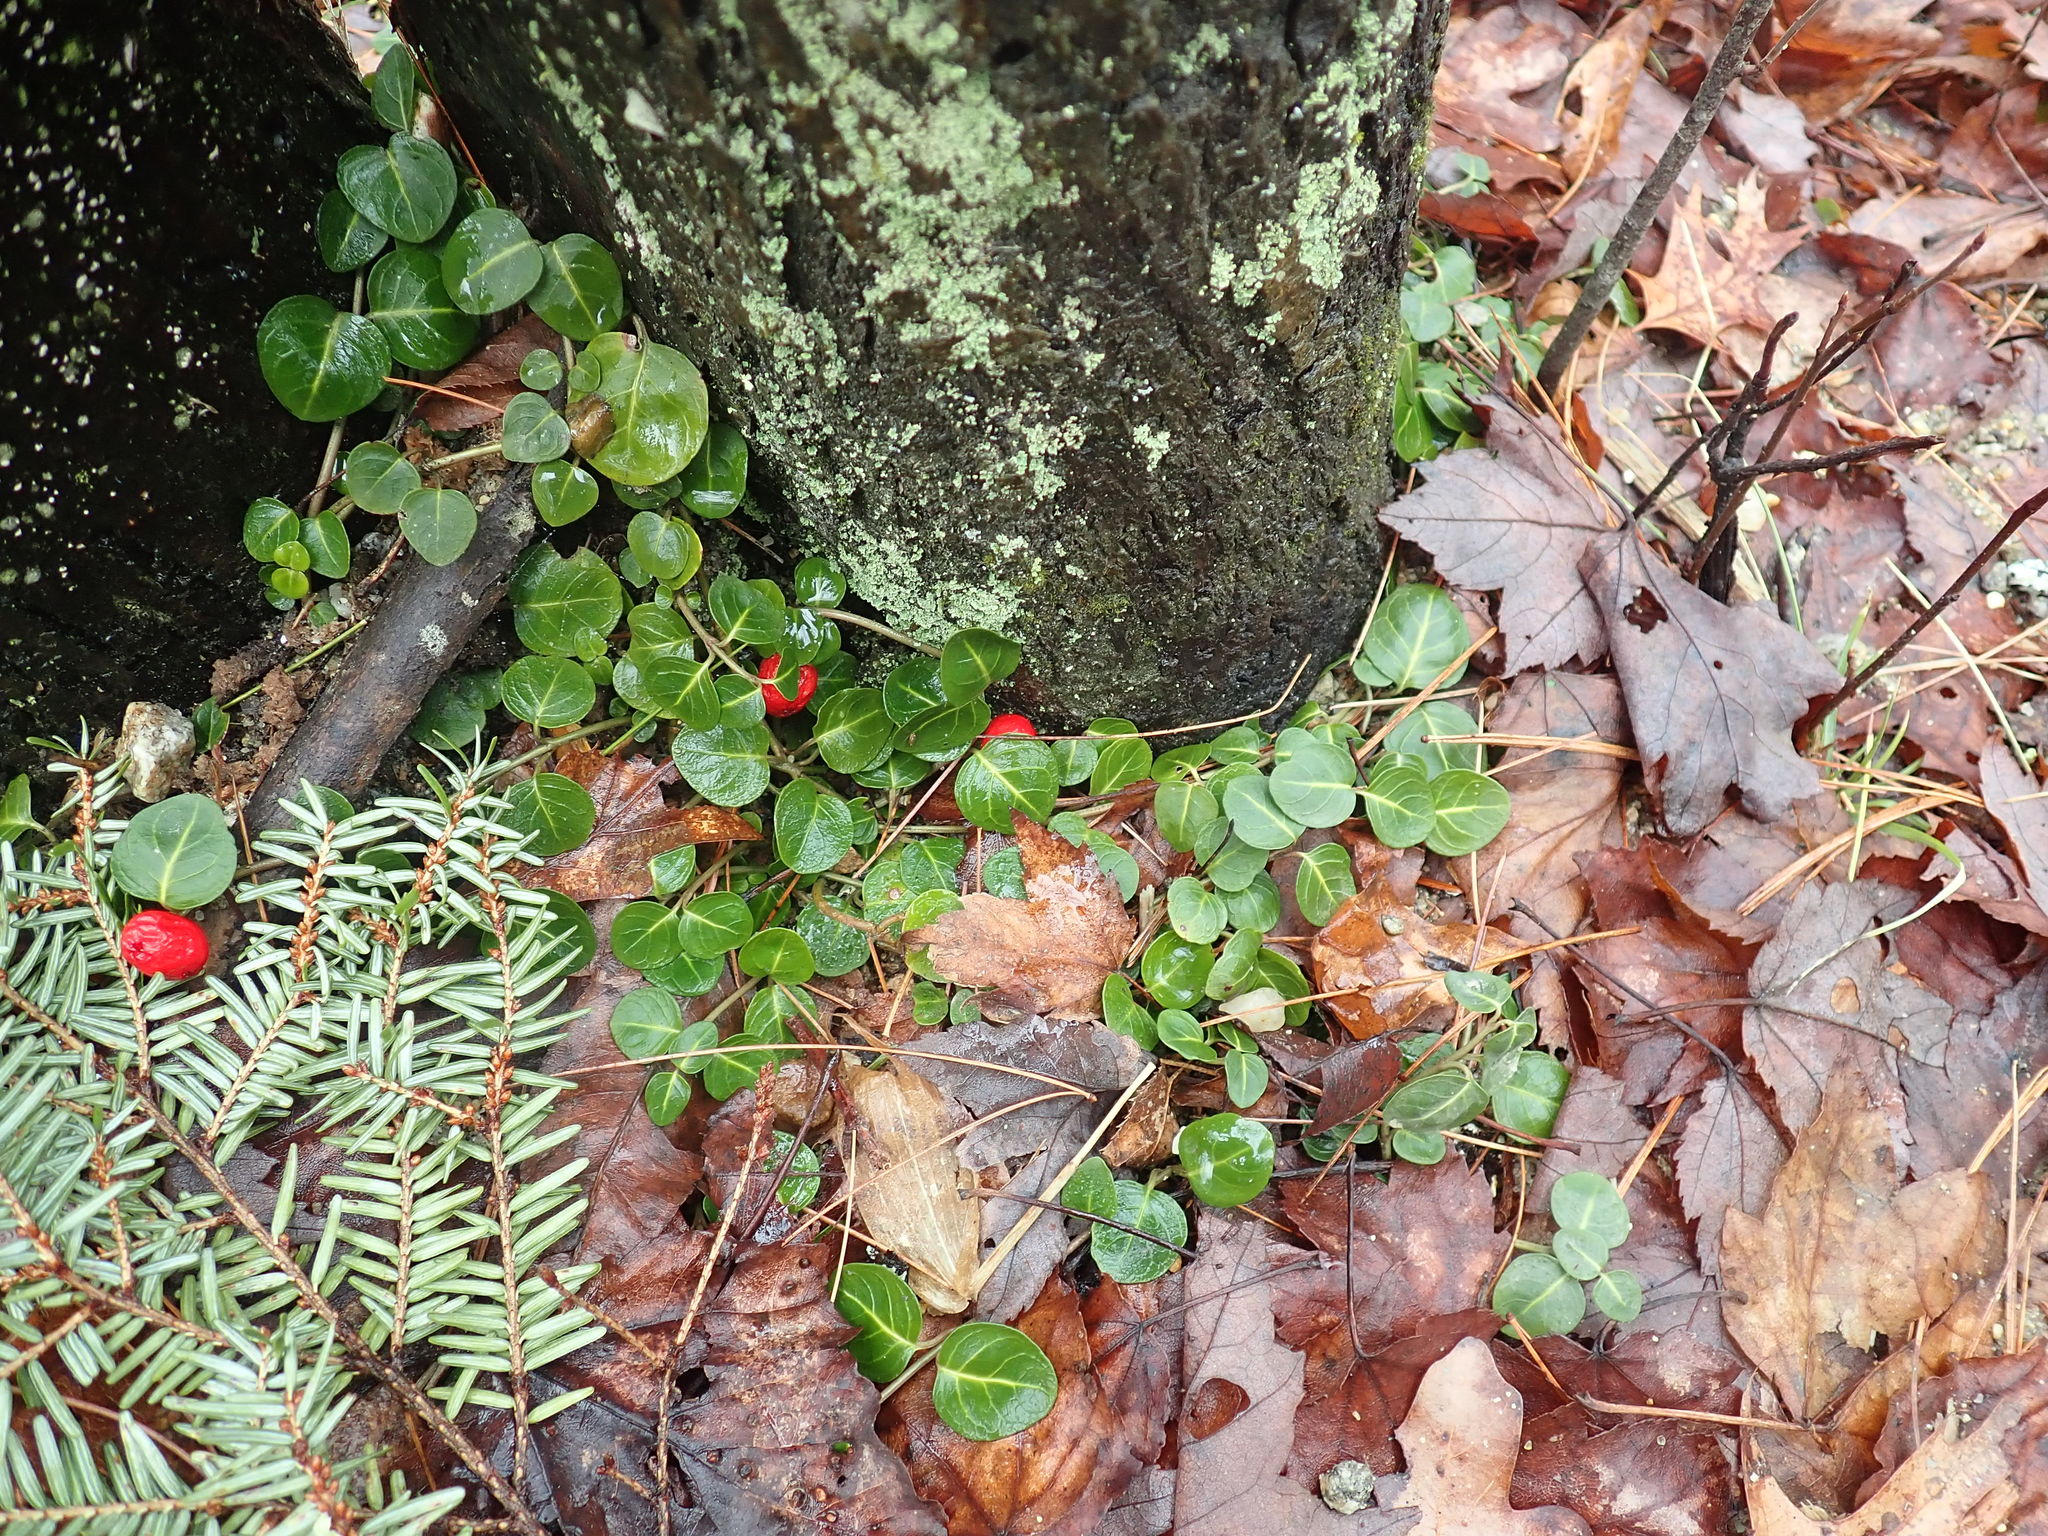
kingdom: Plantae
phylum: Tracheophyta
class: Magnoliopsida
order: Gentianales
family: Rubiaceae
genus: Mitchella
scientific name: Mitchella repens
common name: Partridge-berry
